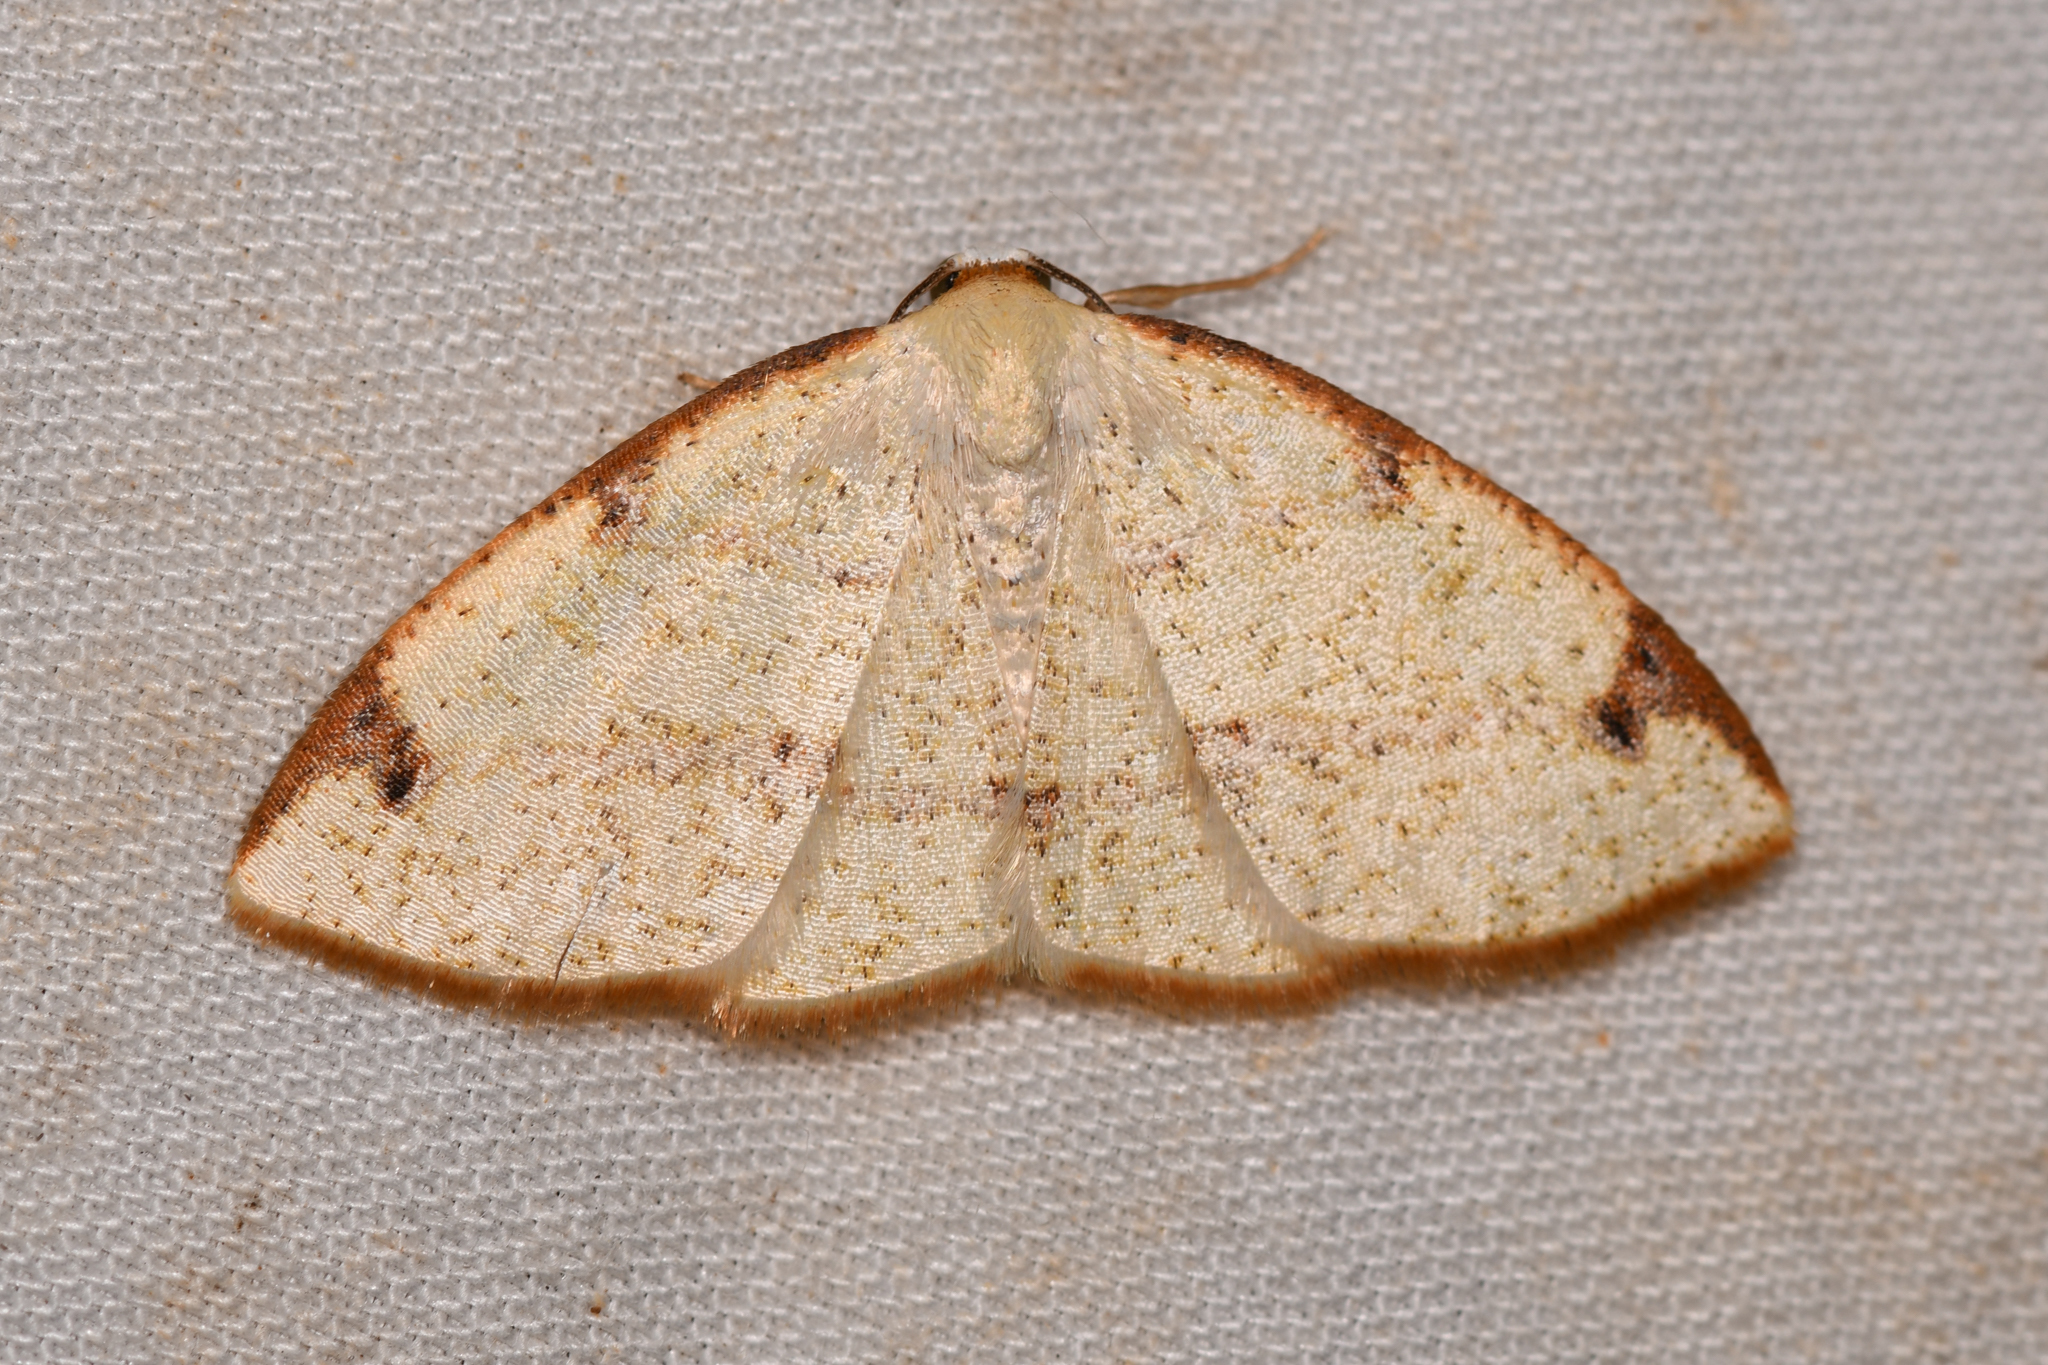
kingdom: Animalia
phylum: Arthropoda
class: Insecta
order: Lepidoptera
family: Geometridae
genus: Microxydia
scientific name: Microxydia orsitaria
